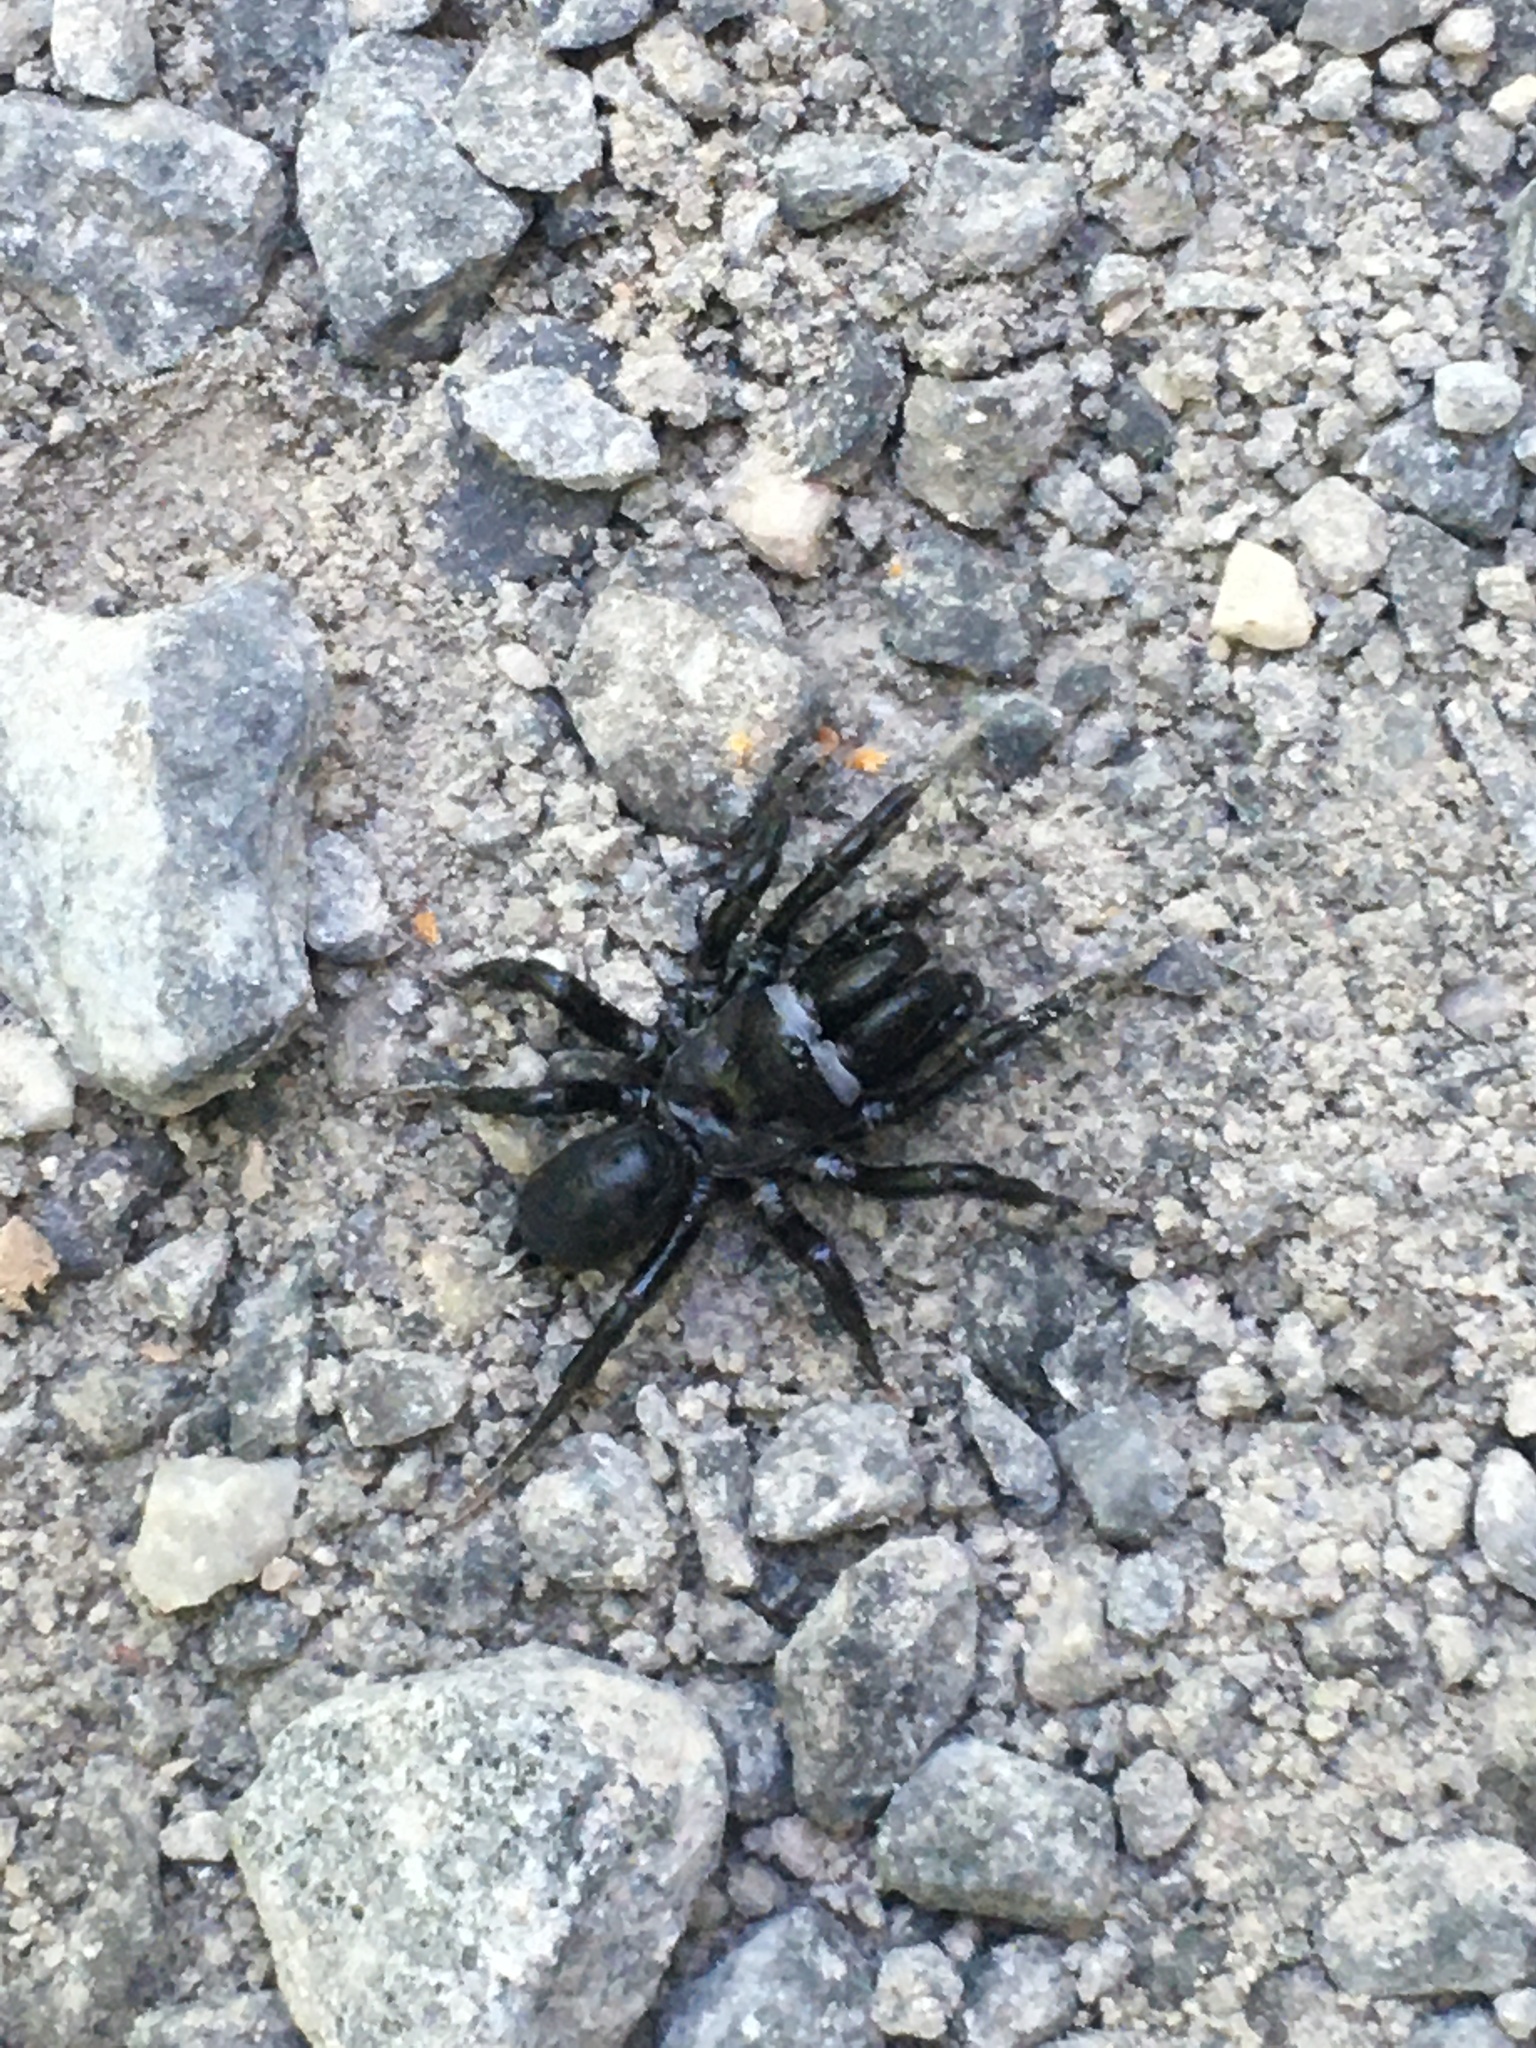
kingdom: Animalia
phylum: Arthropoda
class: Arachnida
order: Araneae
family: Atypidae
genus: Sphodros
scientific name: Sphodros niger
